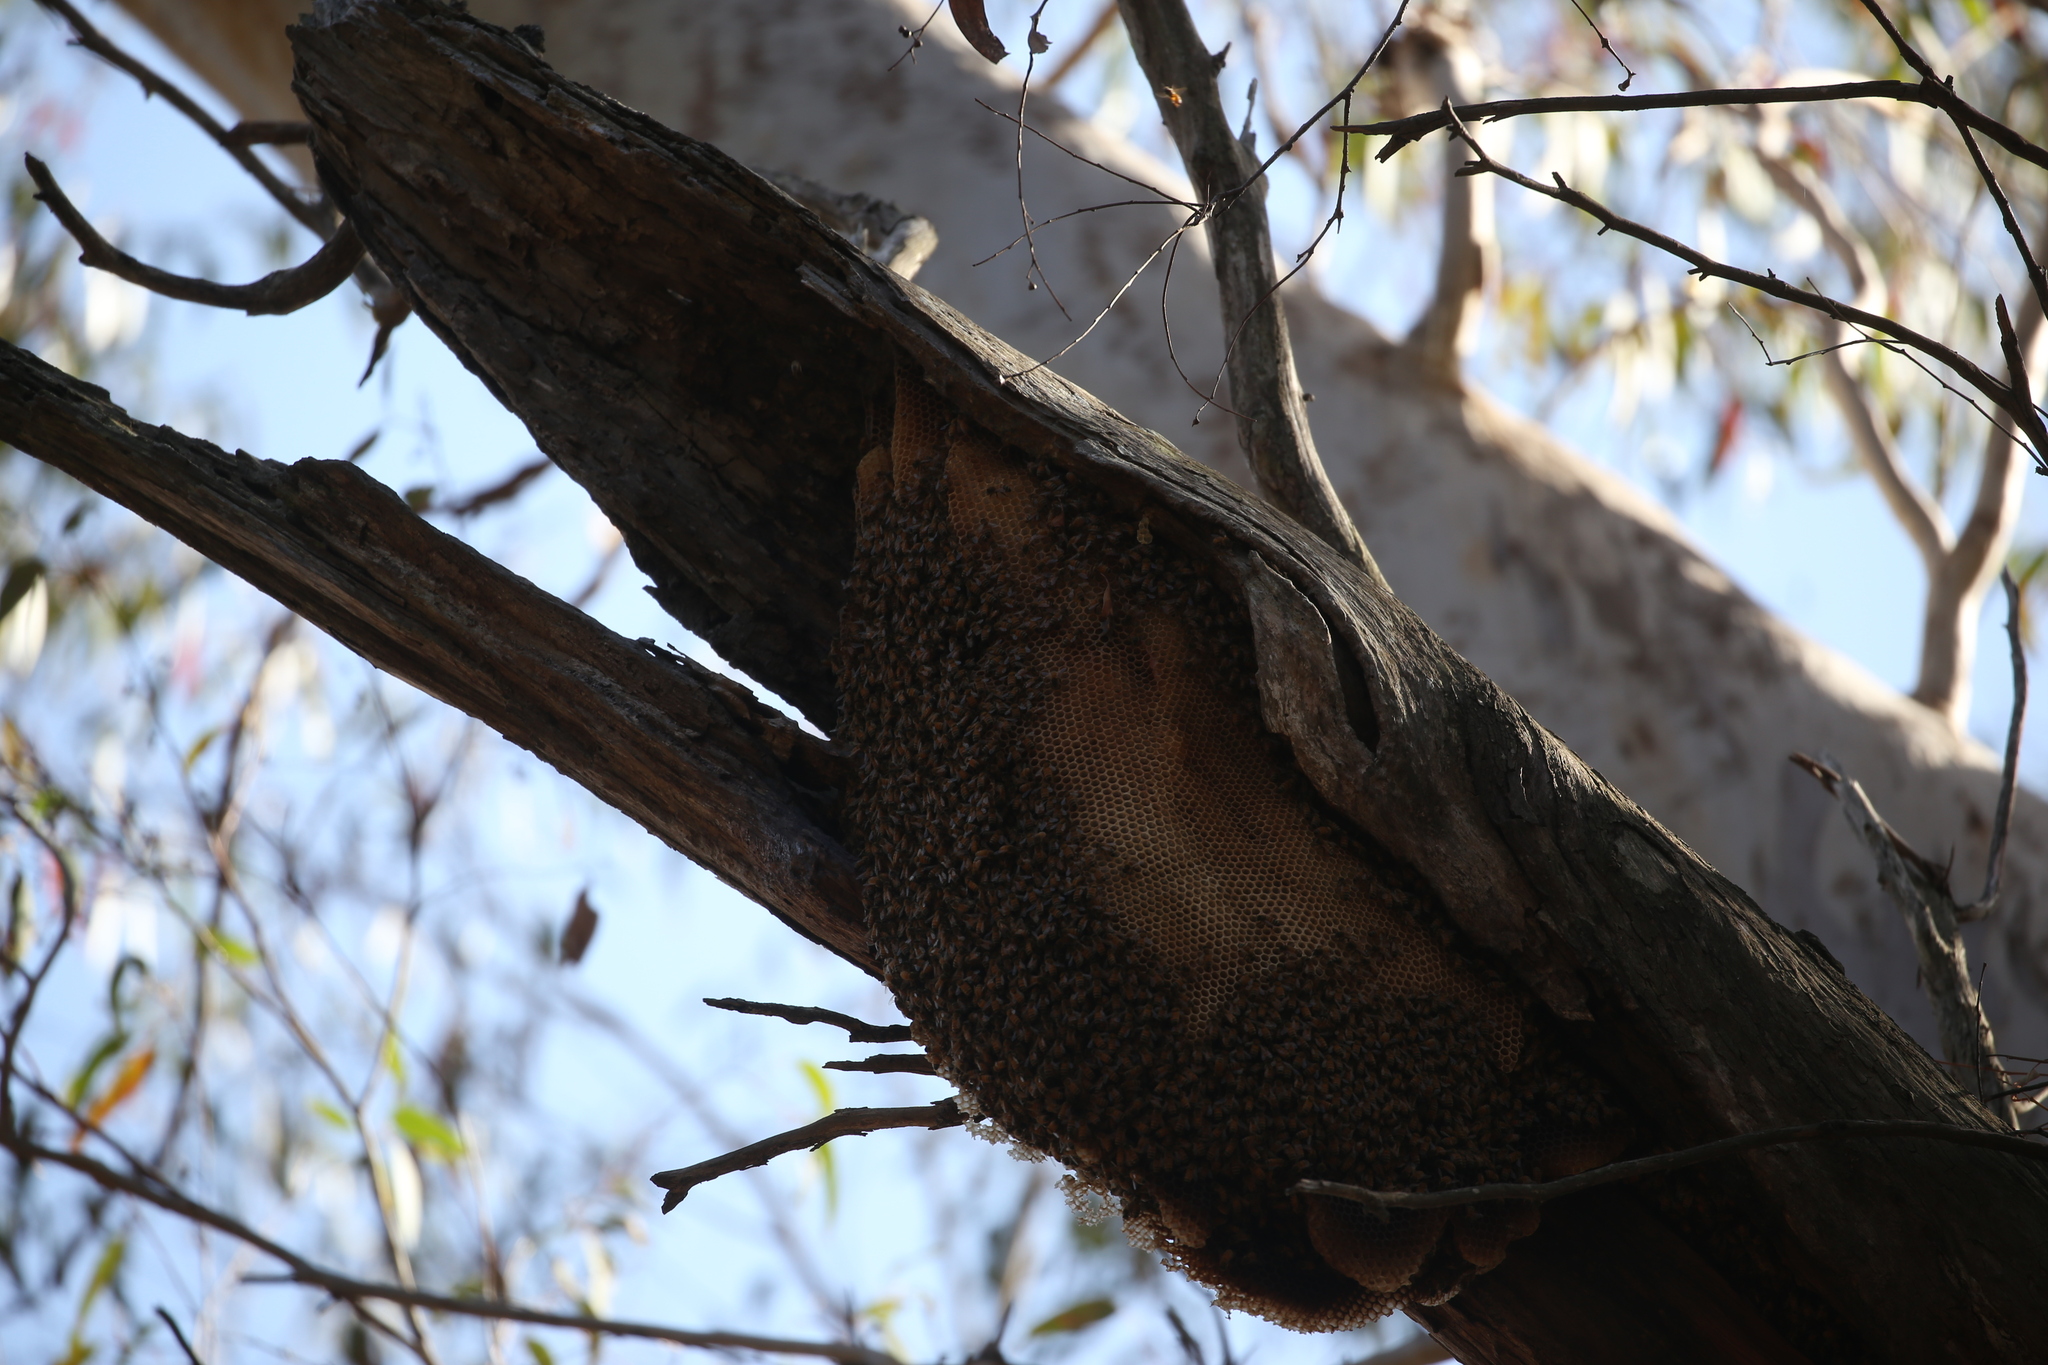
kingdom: Animalia
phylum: Arthropoda
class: Insecta
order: Hymenoptera
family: Apidae
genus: Apis
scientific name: Apis mellifera
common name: Honey bee
